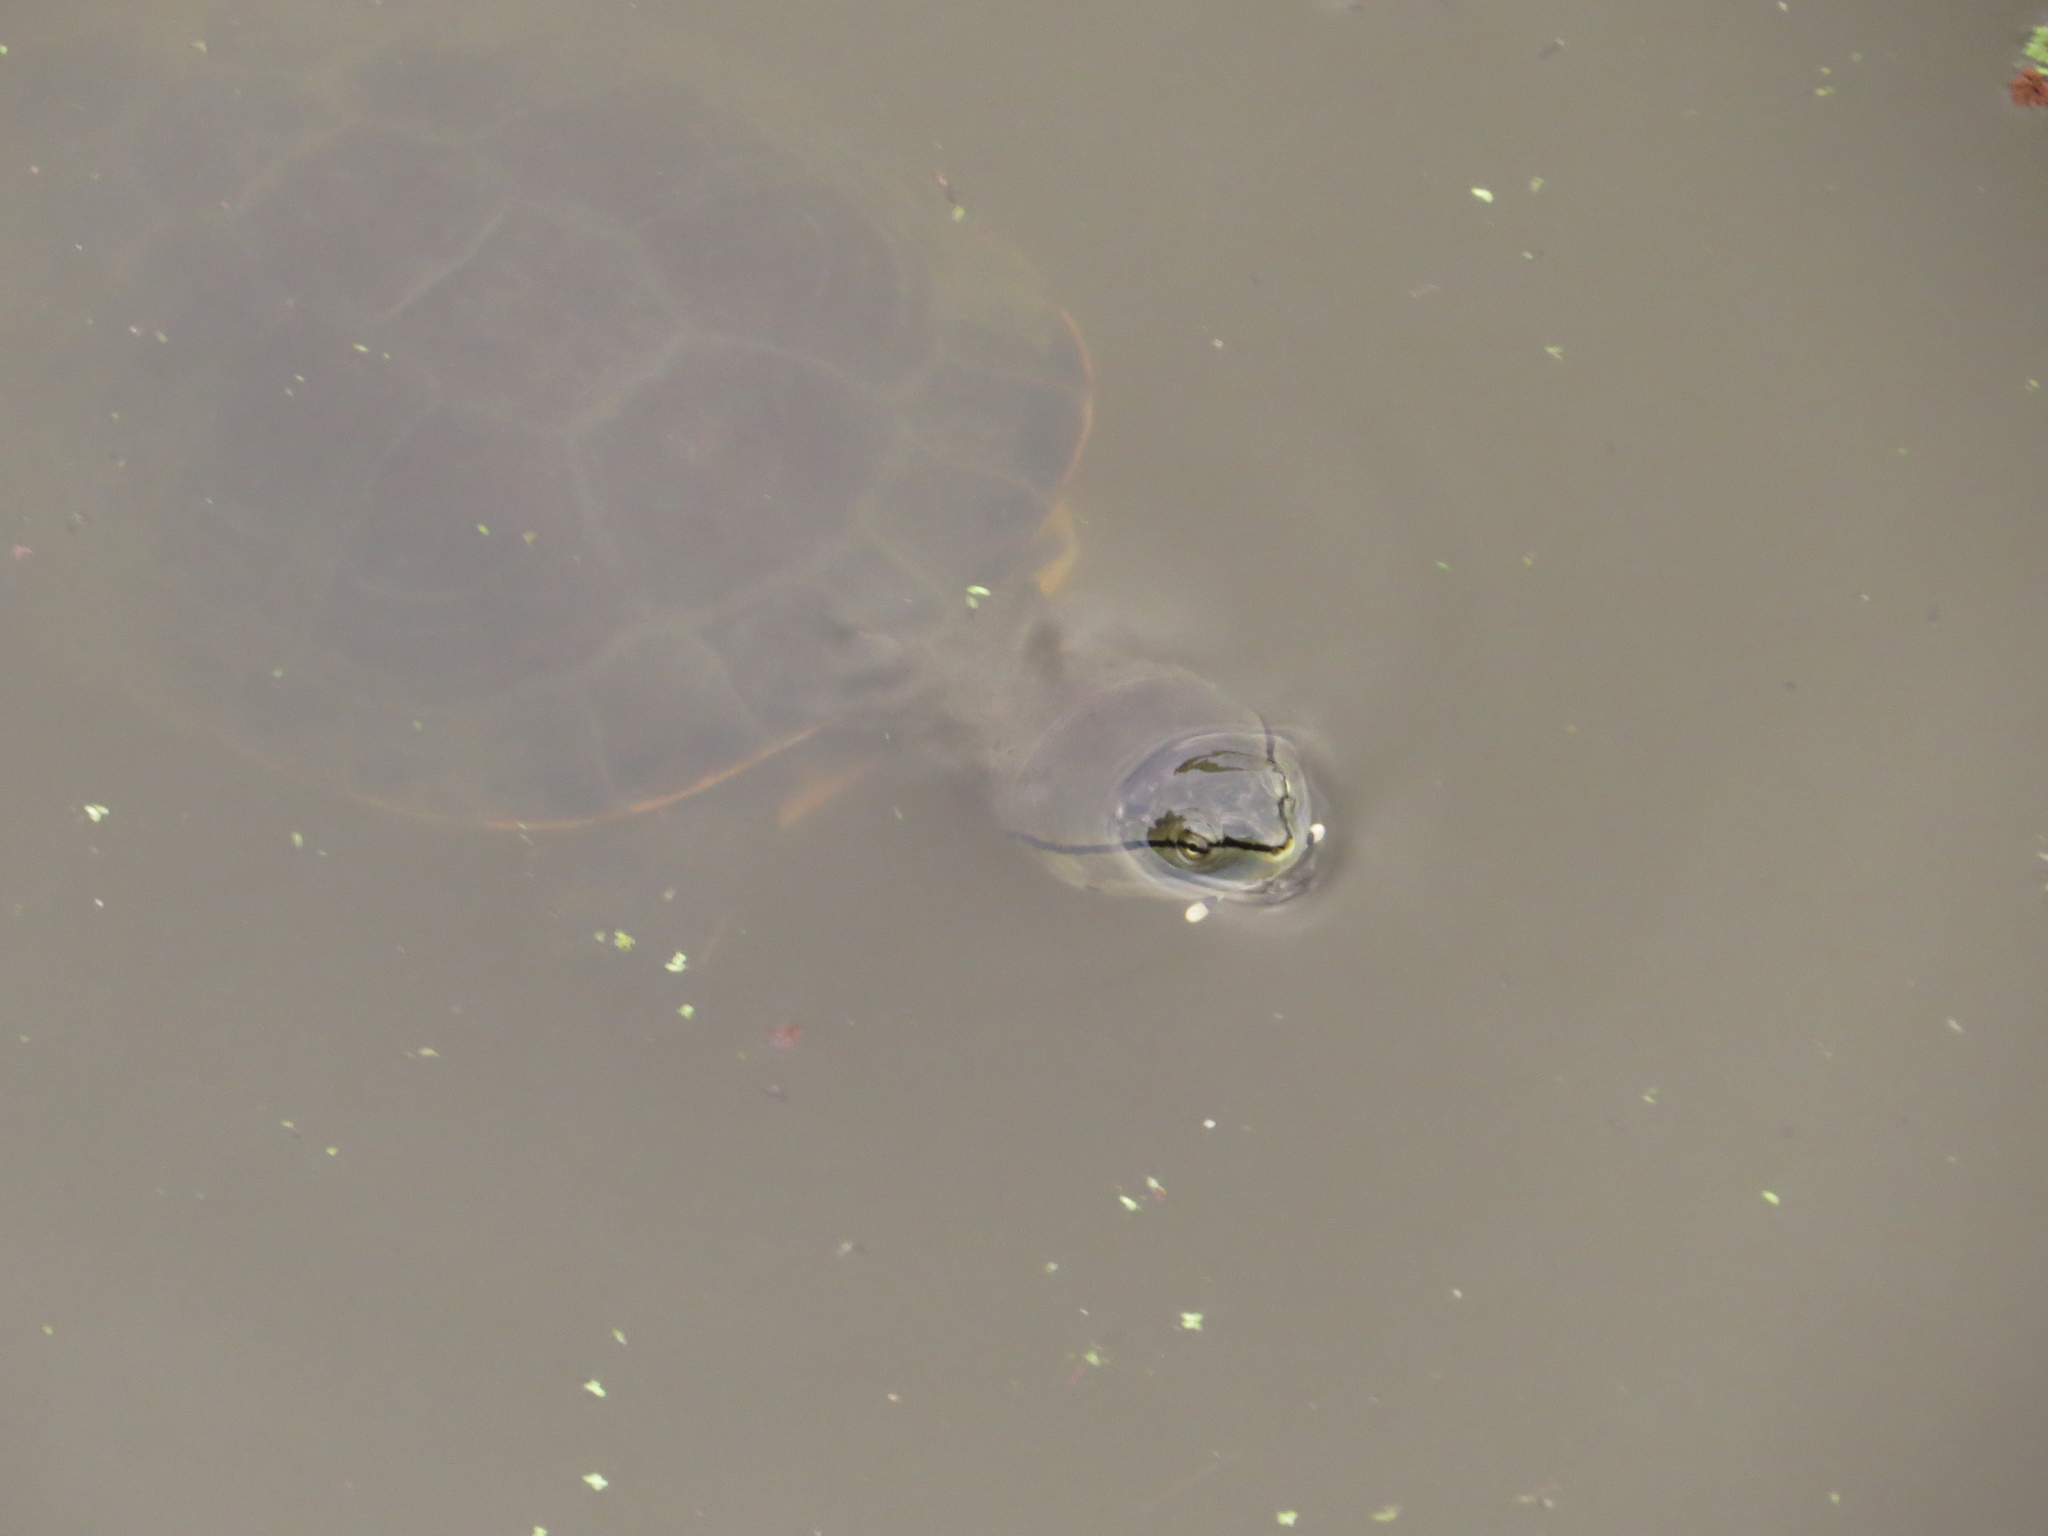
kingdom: Animalia
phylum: Chordata
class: Testudines
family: Chelidae
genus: Phrynops
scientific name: Phrynops hilarii
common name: Side-necked turtle of saint hillaire
